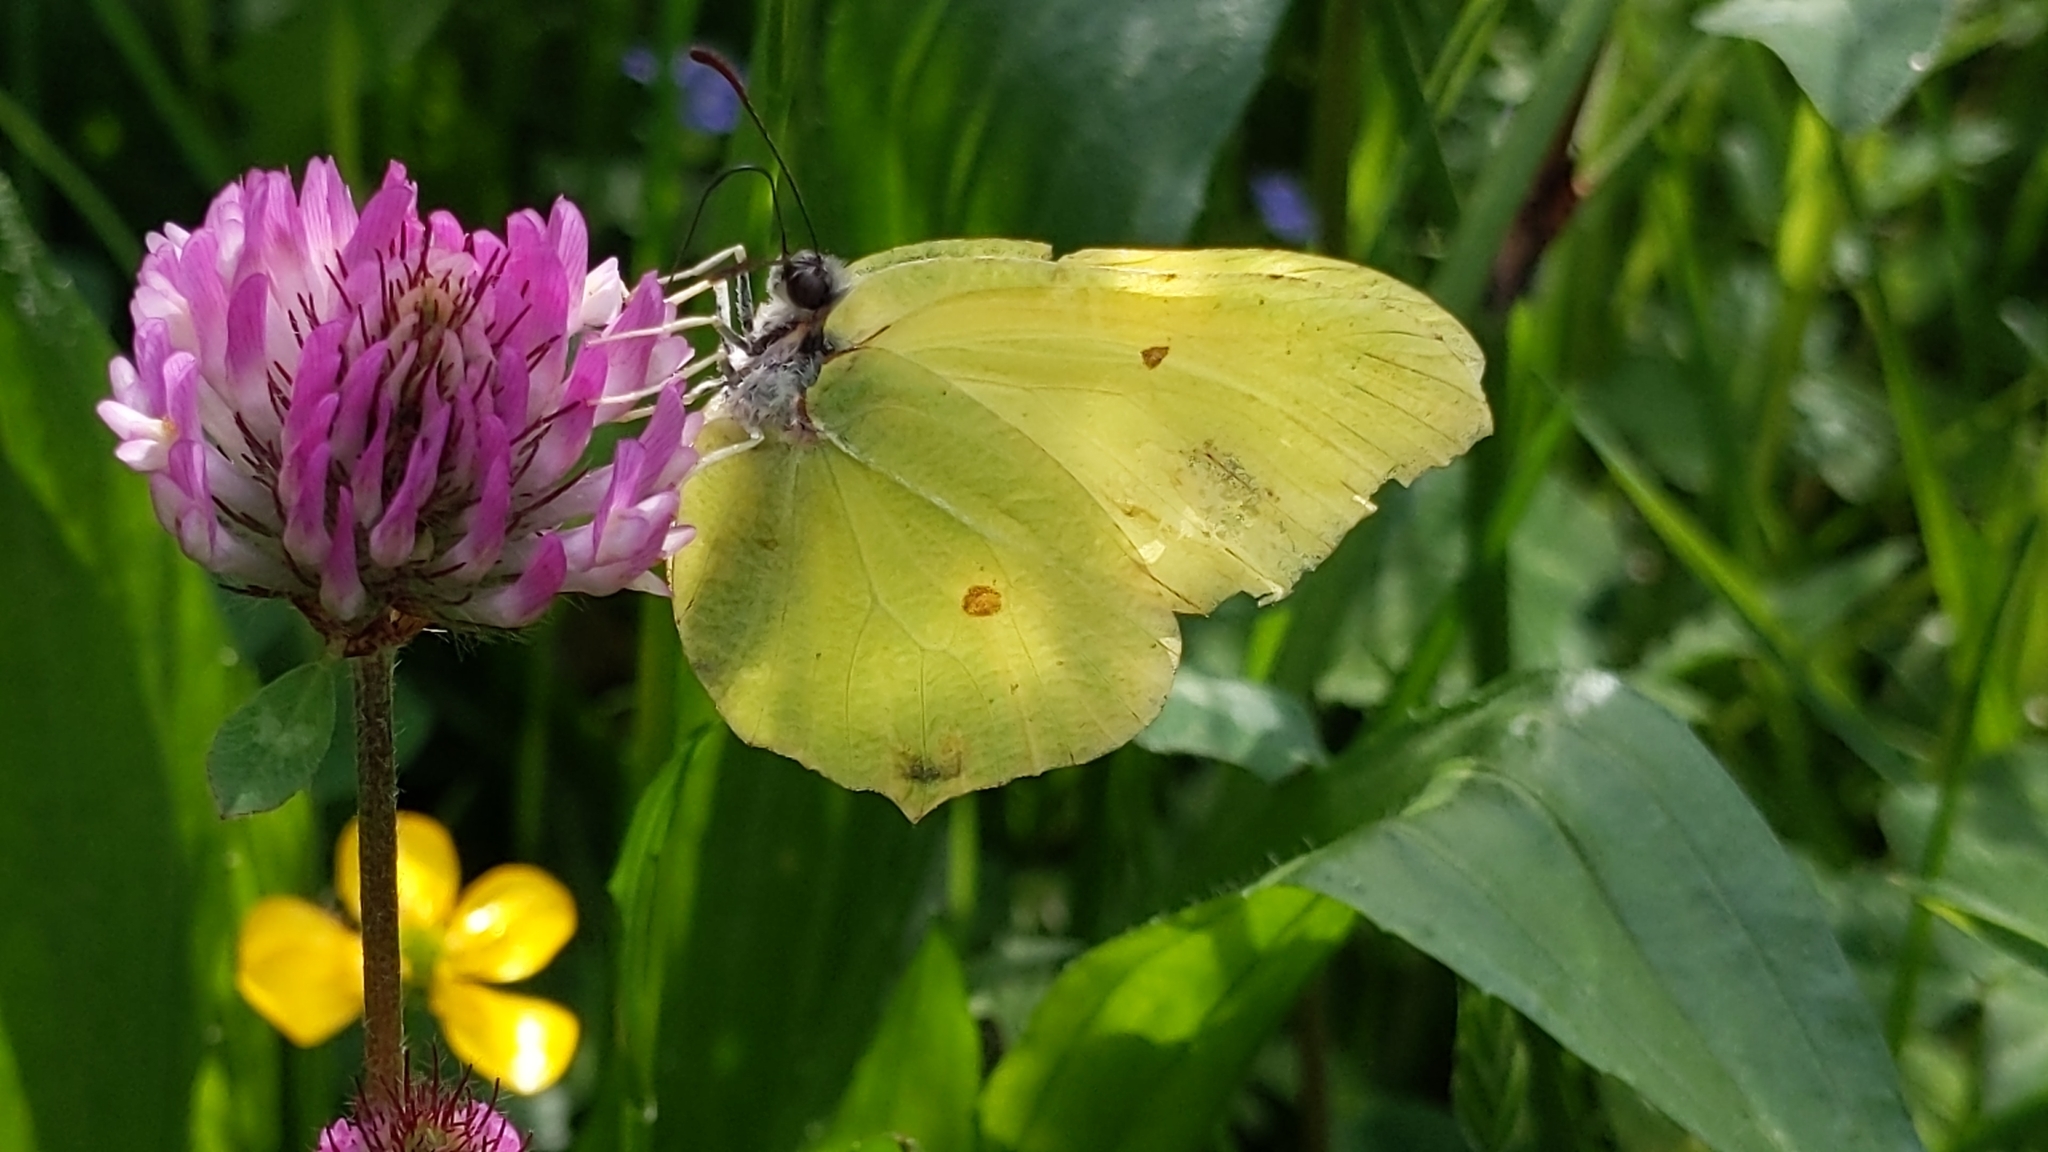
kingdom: Animalia
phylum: Arthropoda
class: Insecta
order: Lepidoptera
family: Pieridae
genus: Gonepteryx
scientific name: Gonepteryx rhamni
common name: Brimstone
